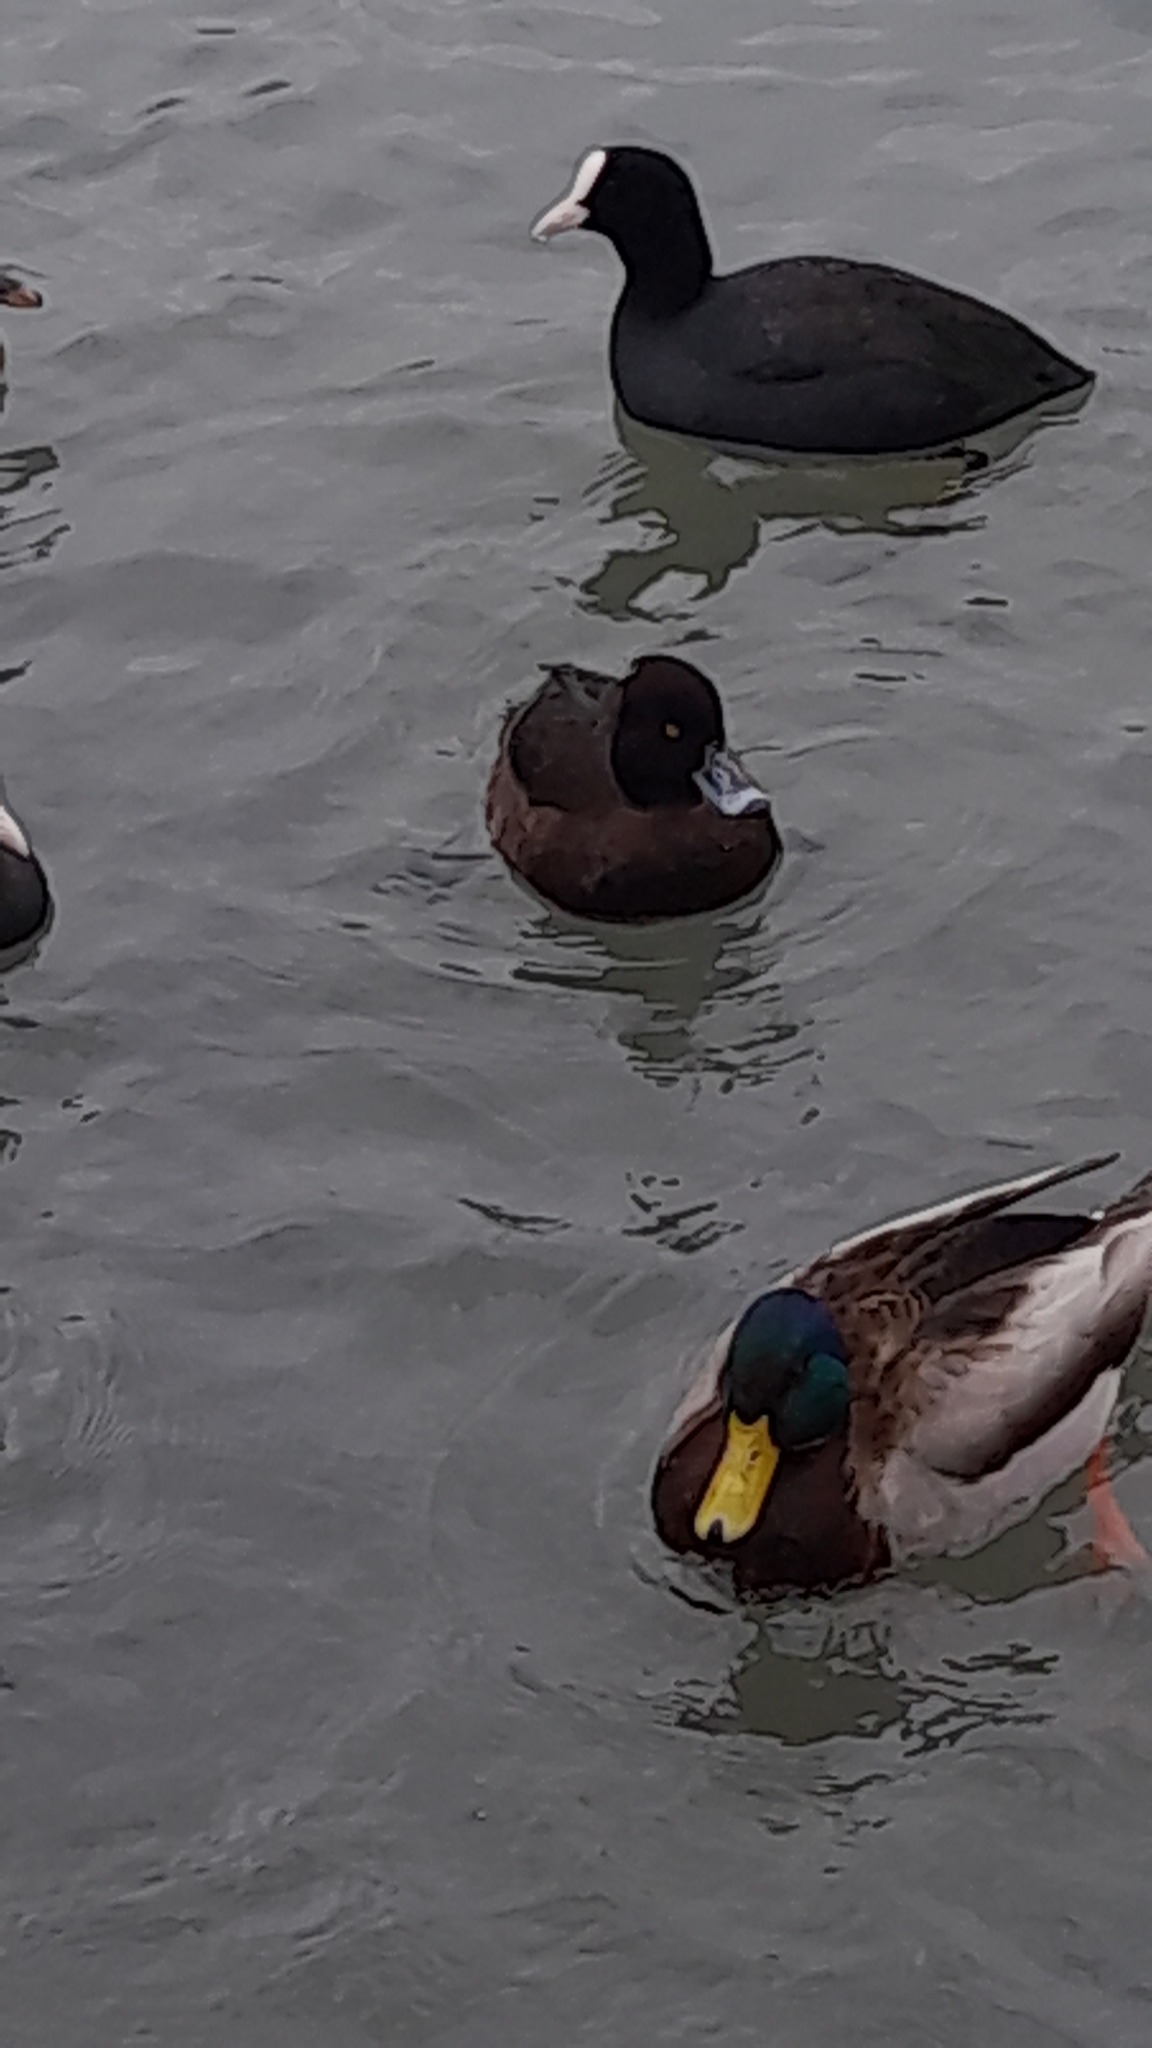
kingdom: Animalia
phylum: Chordata
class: Aves
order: Anseriformes
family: Anatidae
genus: Aythya
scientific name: Aythya fuligula
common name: Tufted duck
